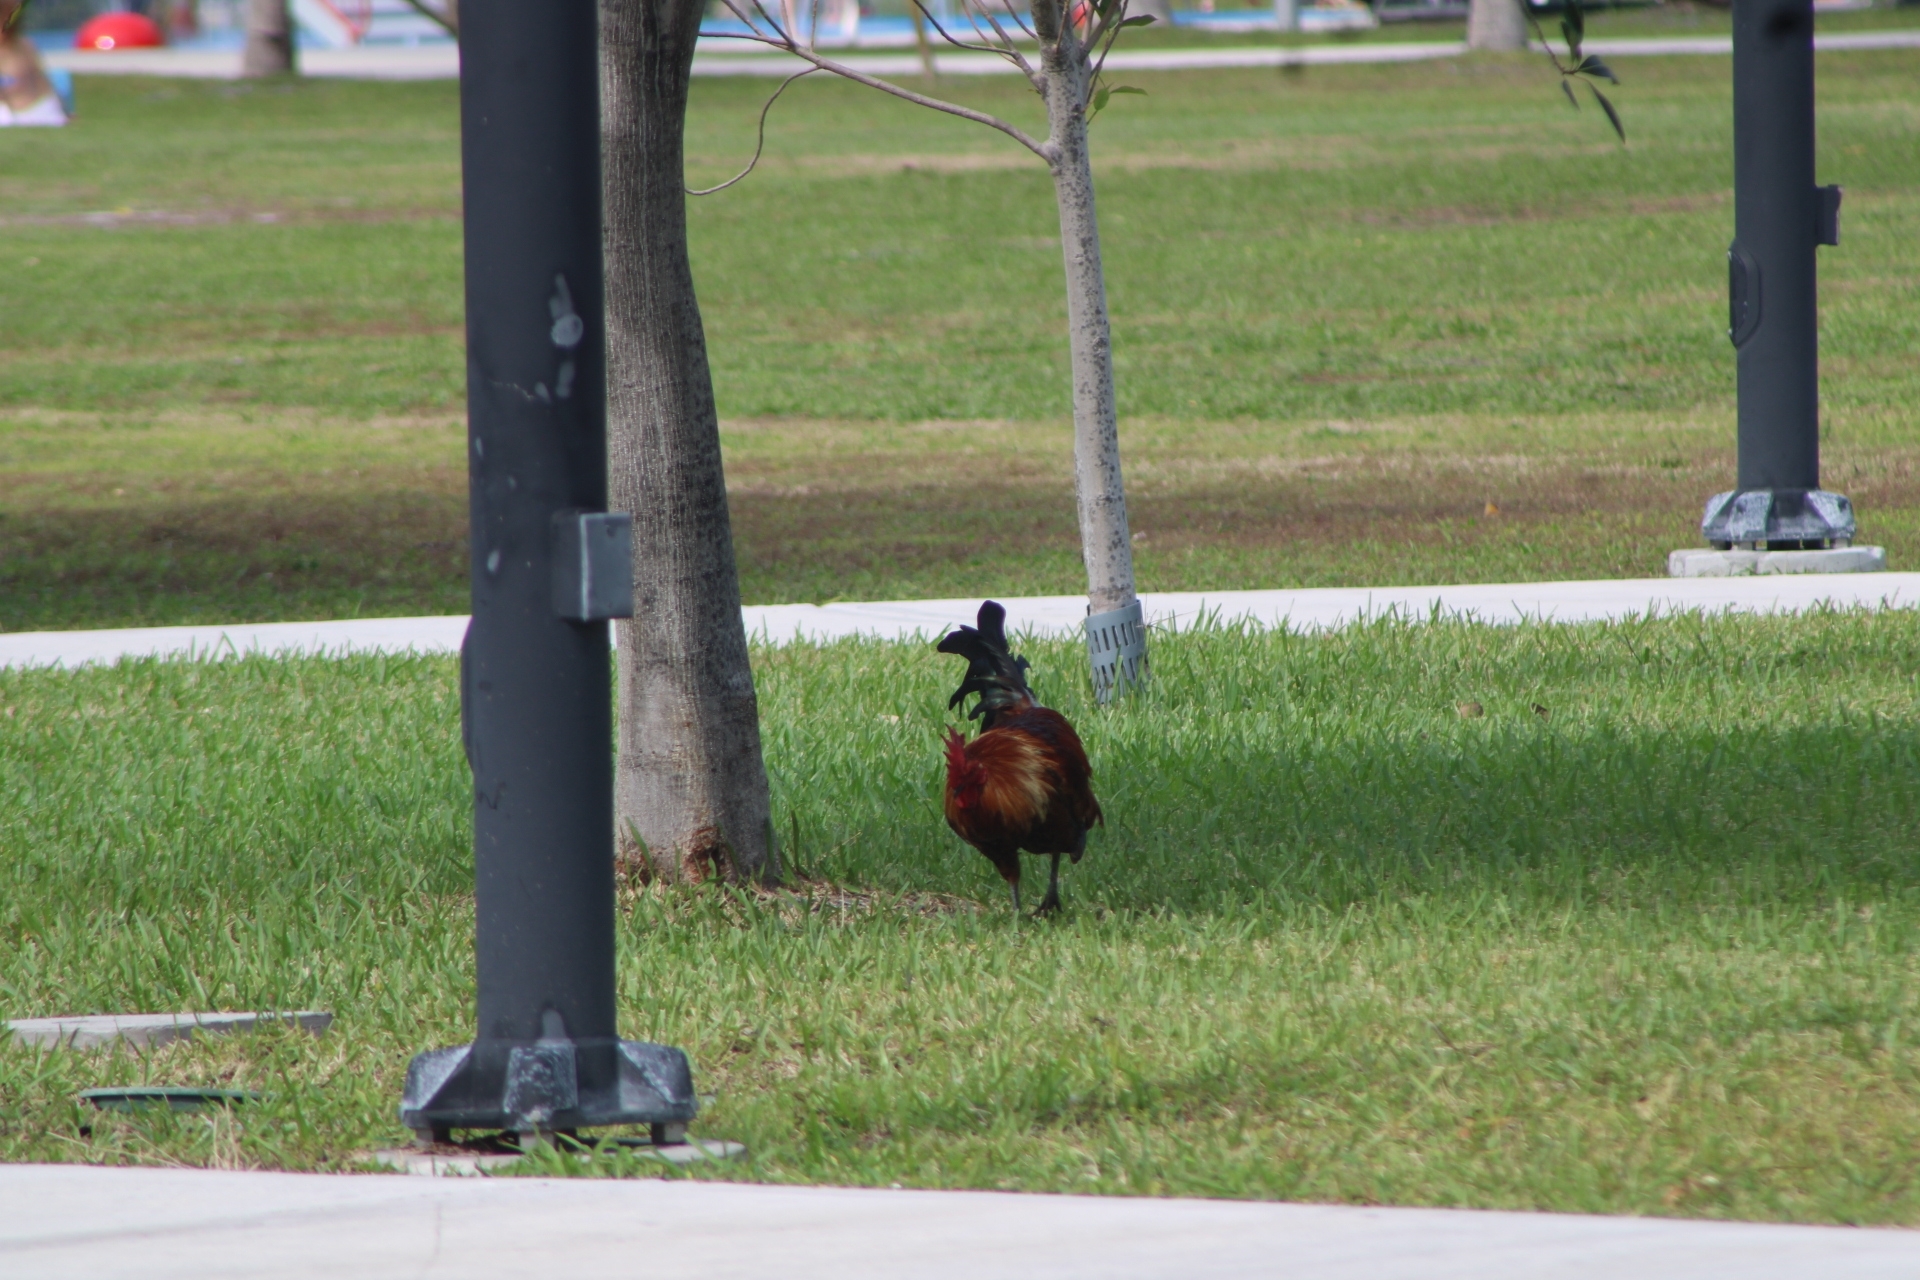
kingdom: Animalia
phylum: Chordata
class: Aves
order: Galliformes
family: Phasianidae
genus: Gallus
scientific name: Gallus gallus
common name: Red junglefowl
